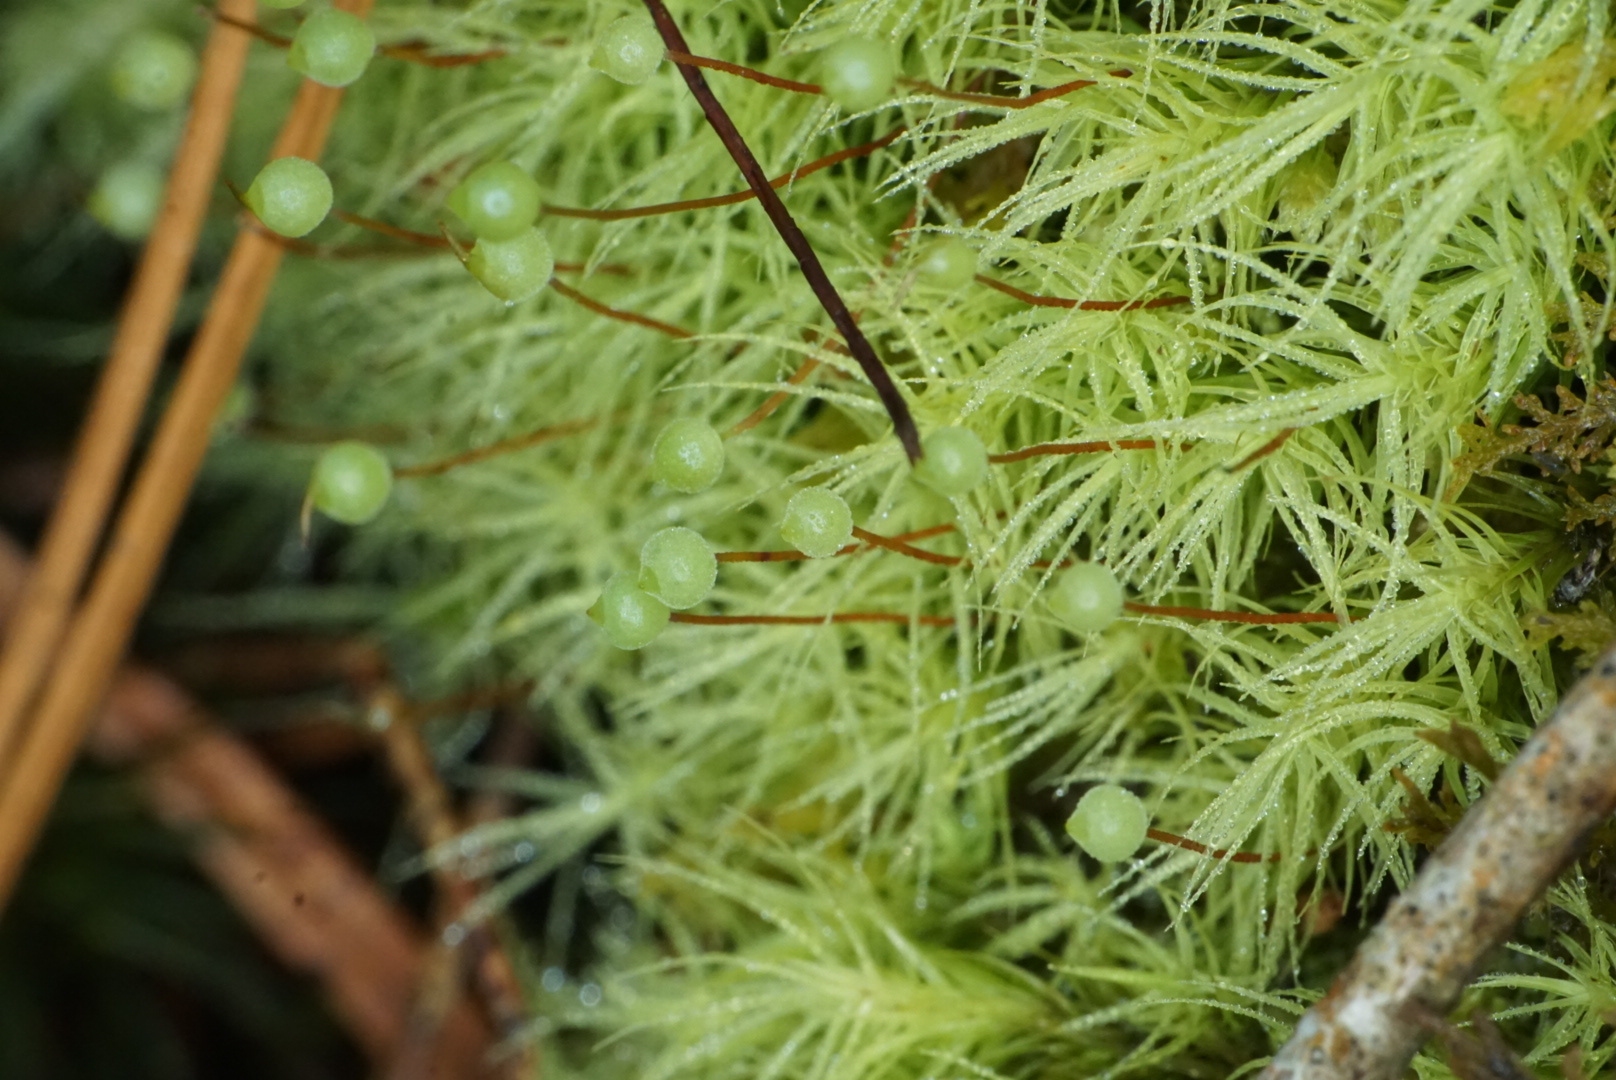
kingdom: Plantae
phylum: Bryophyta
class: Bryopsida
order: Bartramiales
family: Bartramiaceae
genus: Bartramia
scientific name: Bartramia ithyphylla
